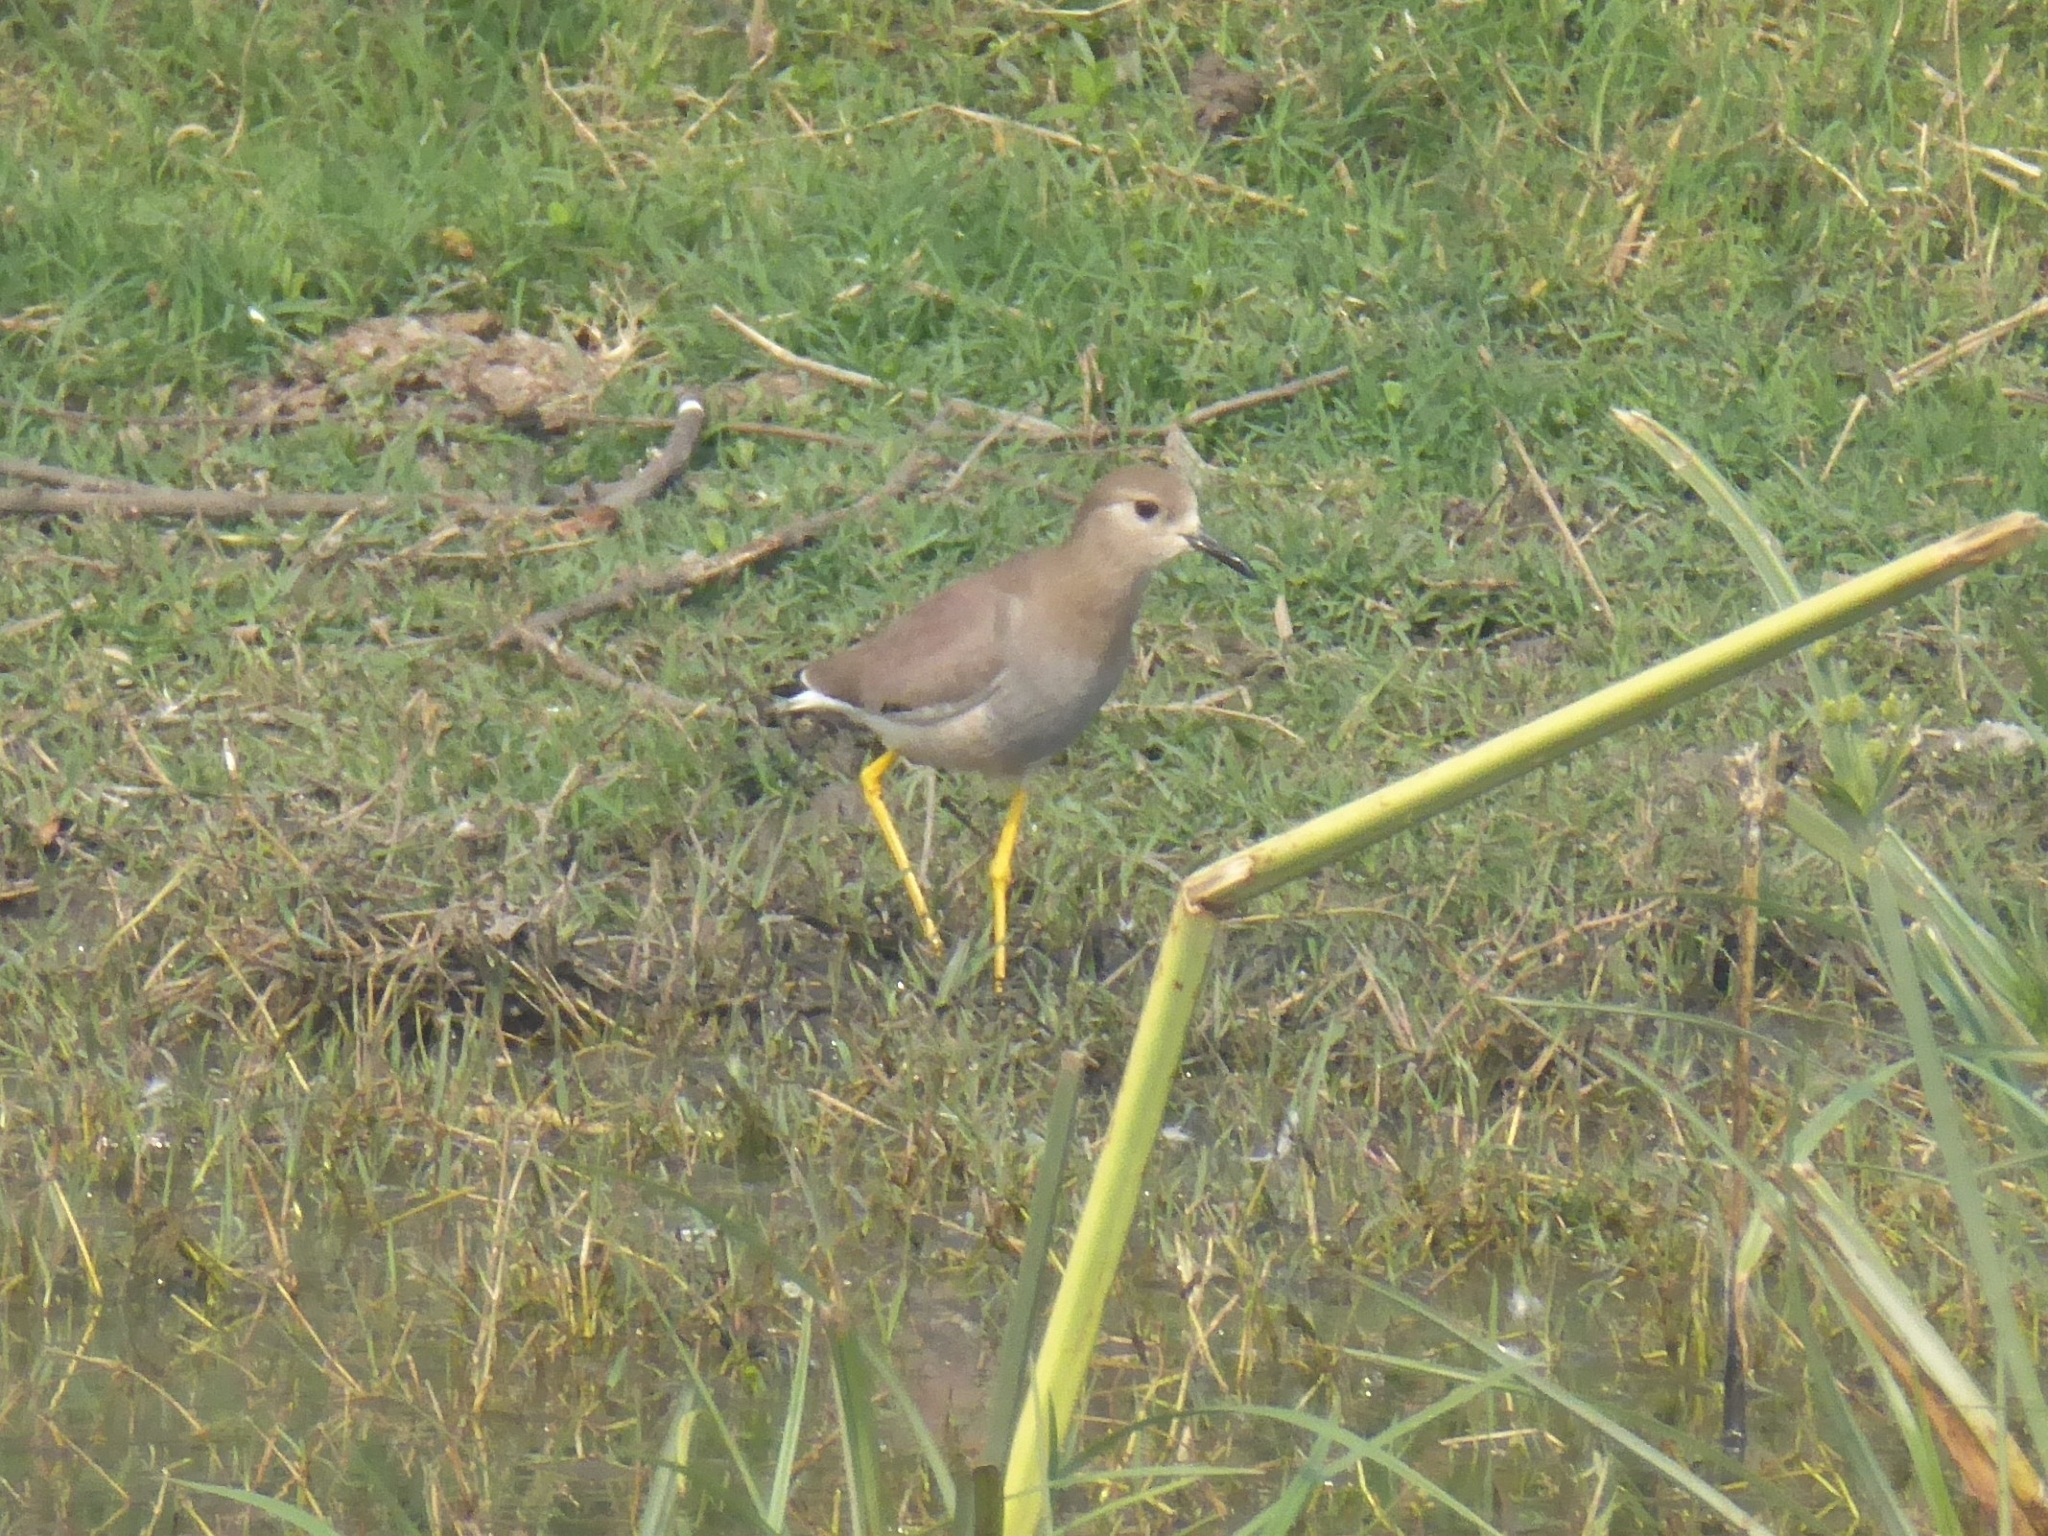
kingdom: Animalia
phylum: Chordata
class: Aves
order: Charadriiformes
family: Charadriidae
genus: Vanellus
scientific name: Vanellus leucurus
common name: White-tailed lapwing
